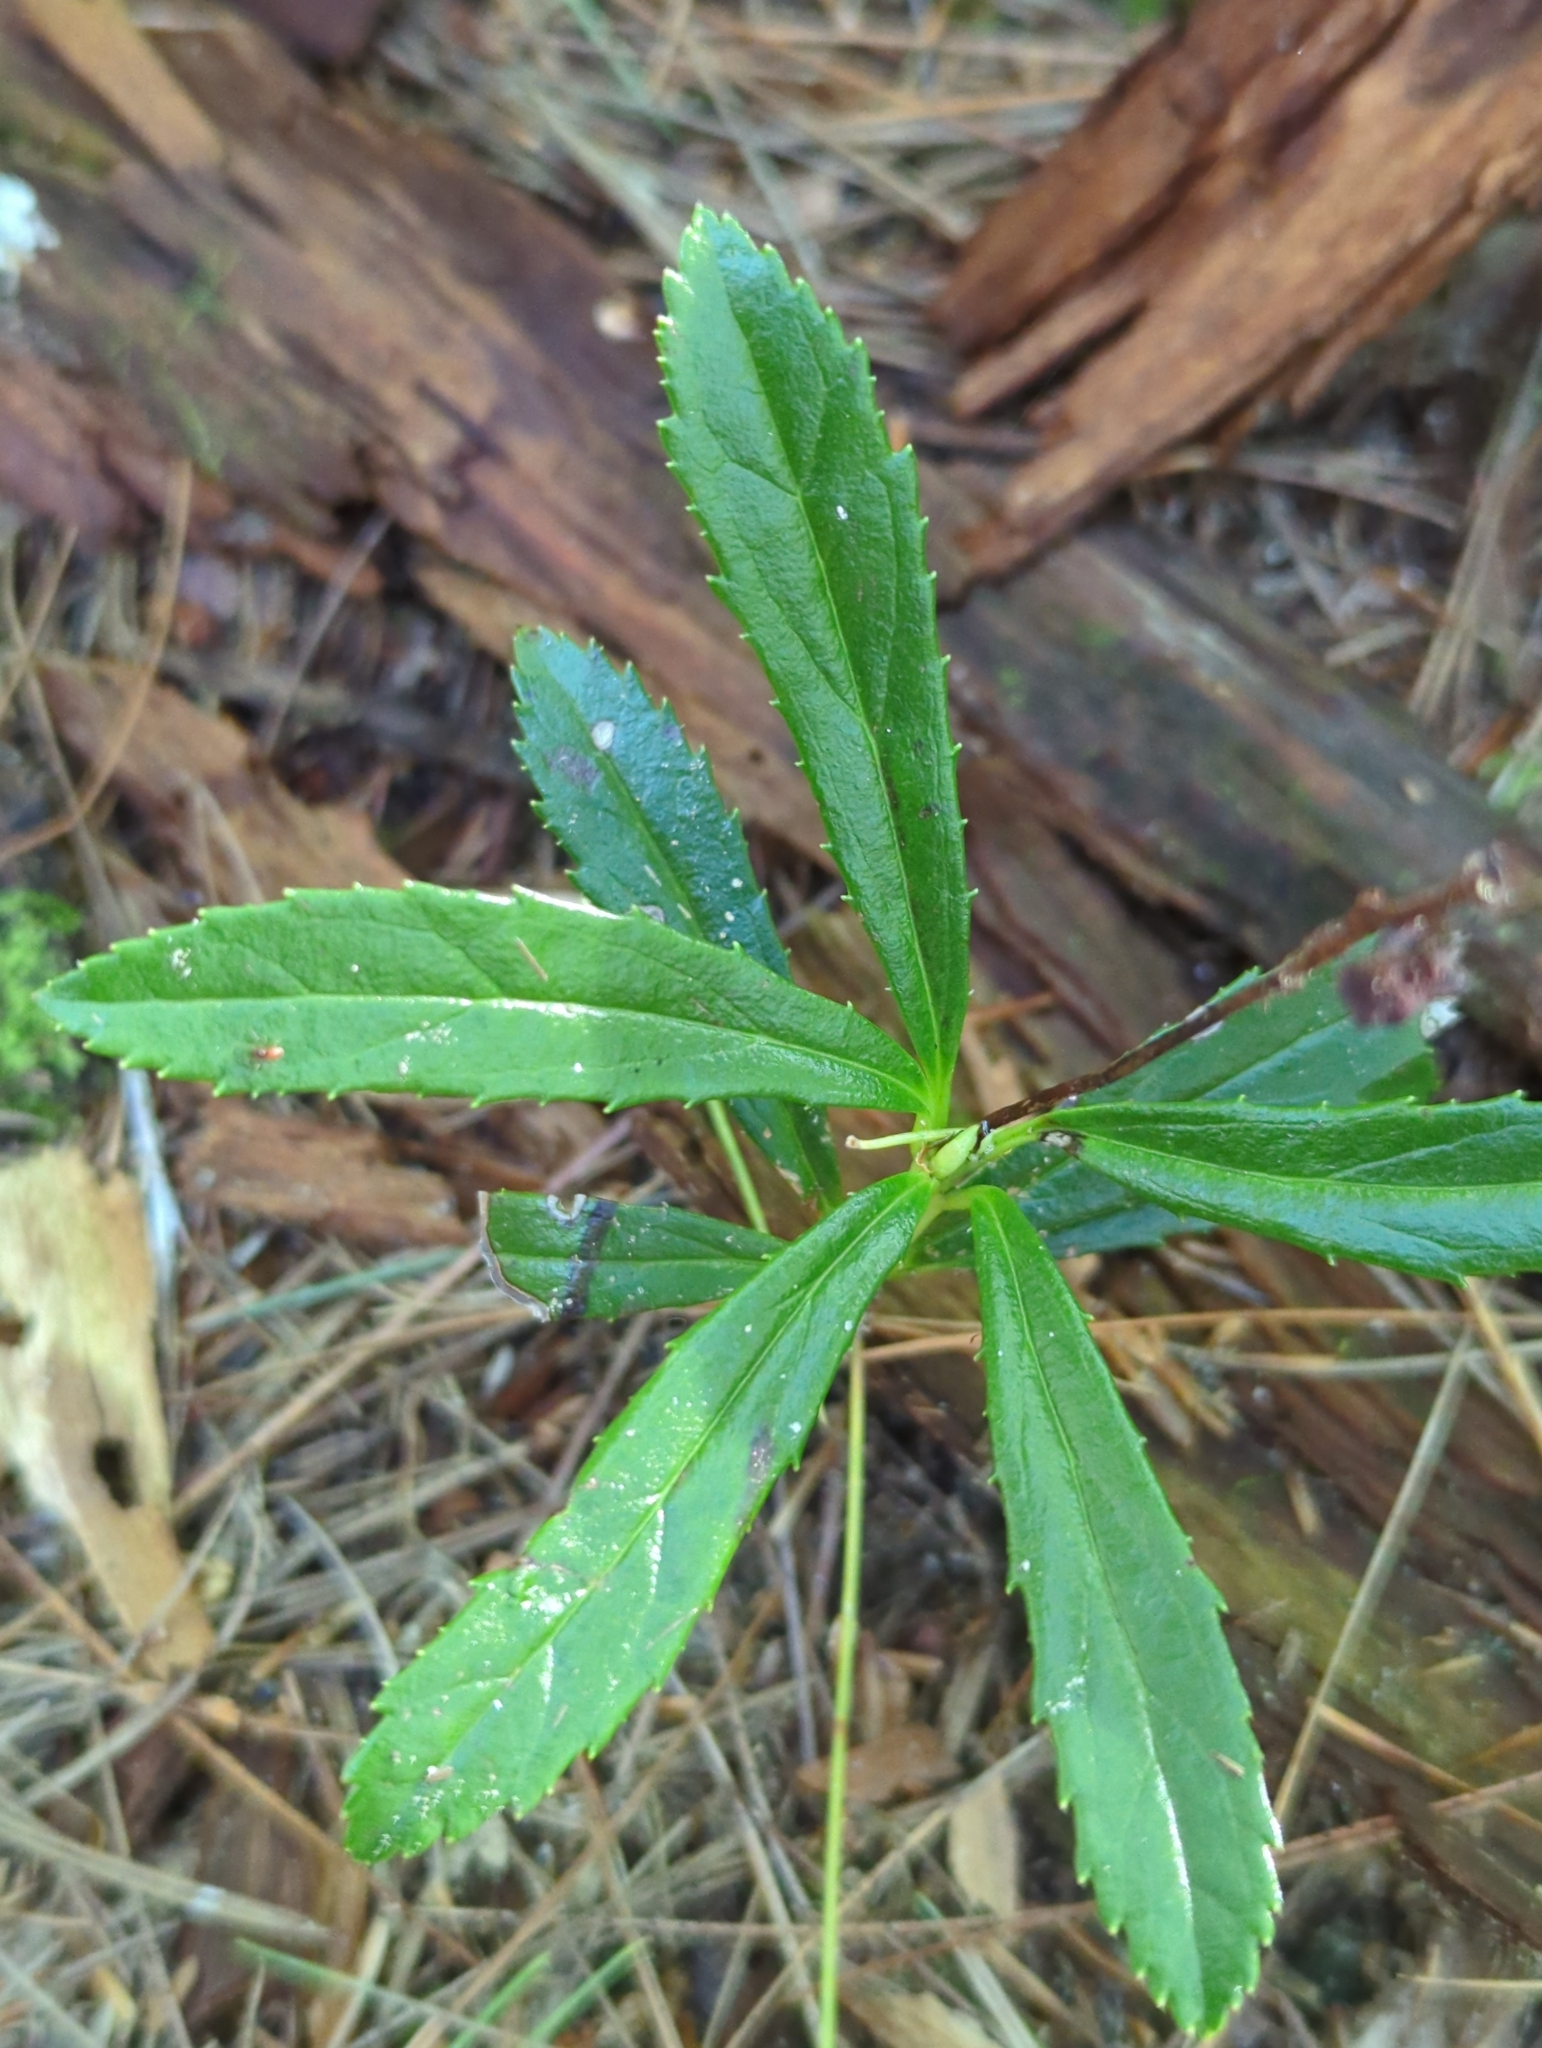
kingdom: Plantae
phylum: Tracheophyta
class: Magnoliopsida
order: Ericales
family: Ericaceae
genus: Chimaphila
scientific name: Chimaphila umbellata
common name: Pipsissewa
